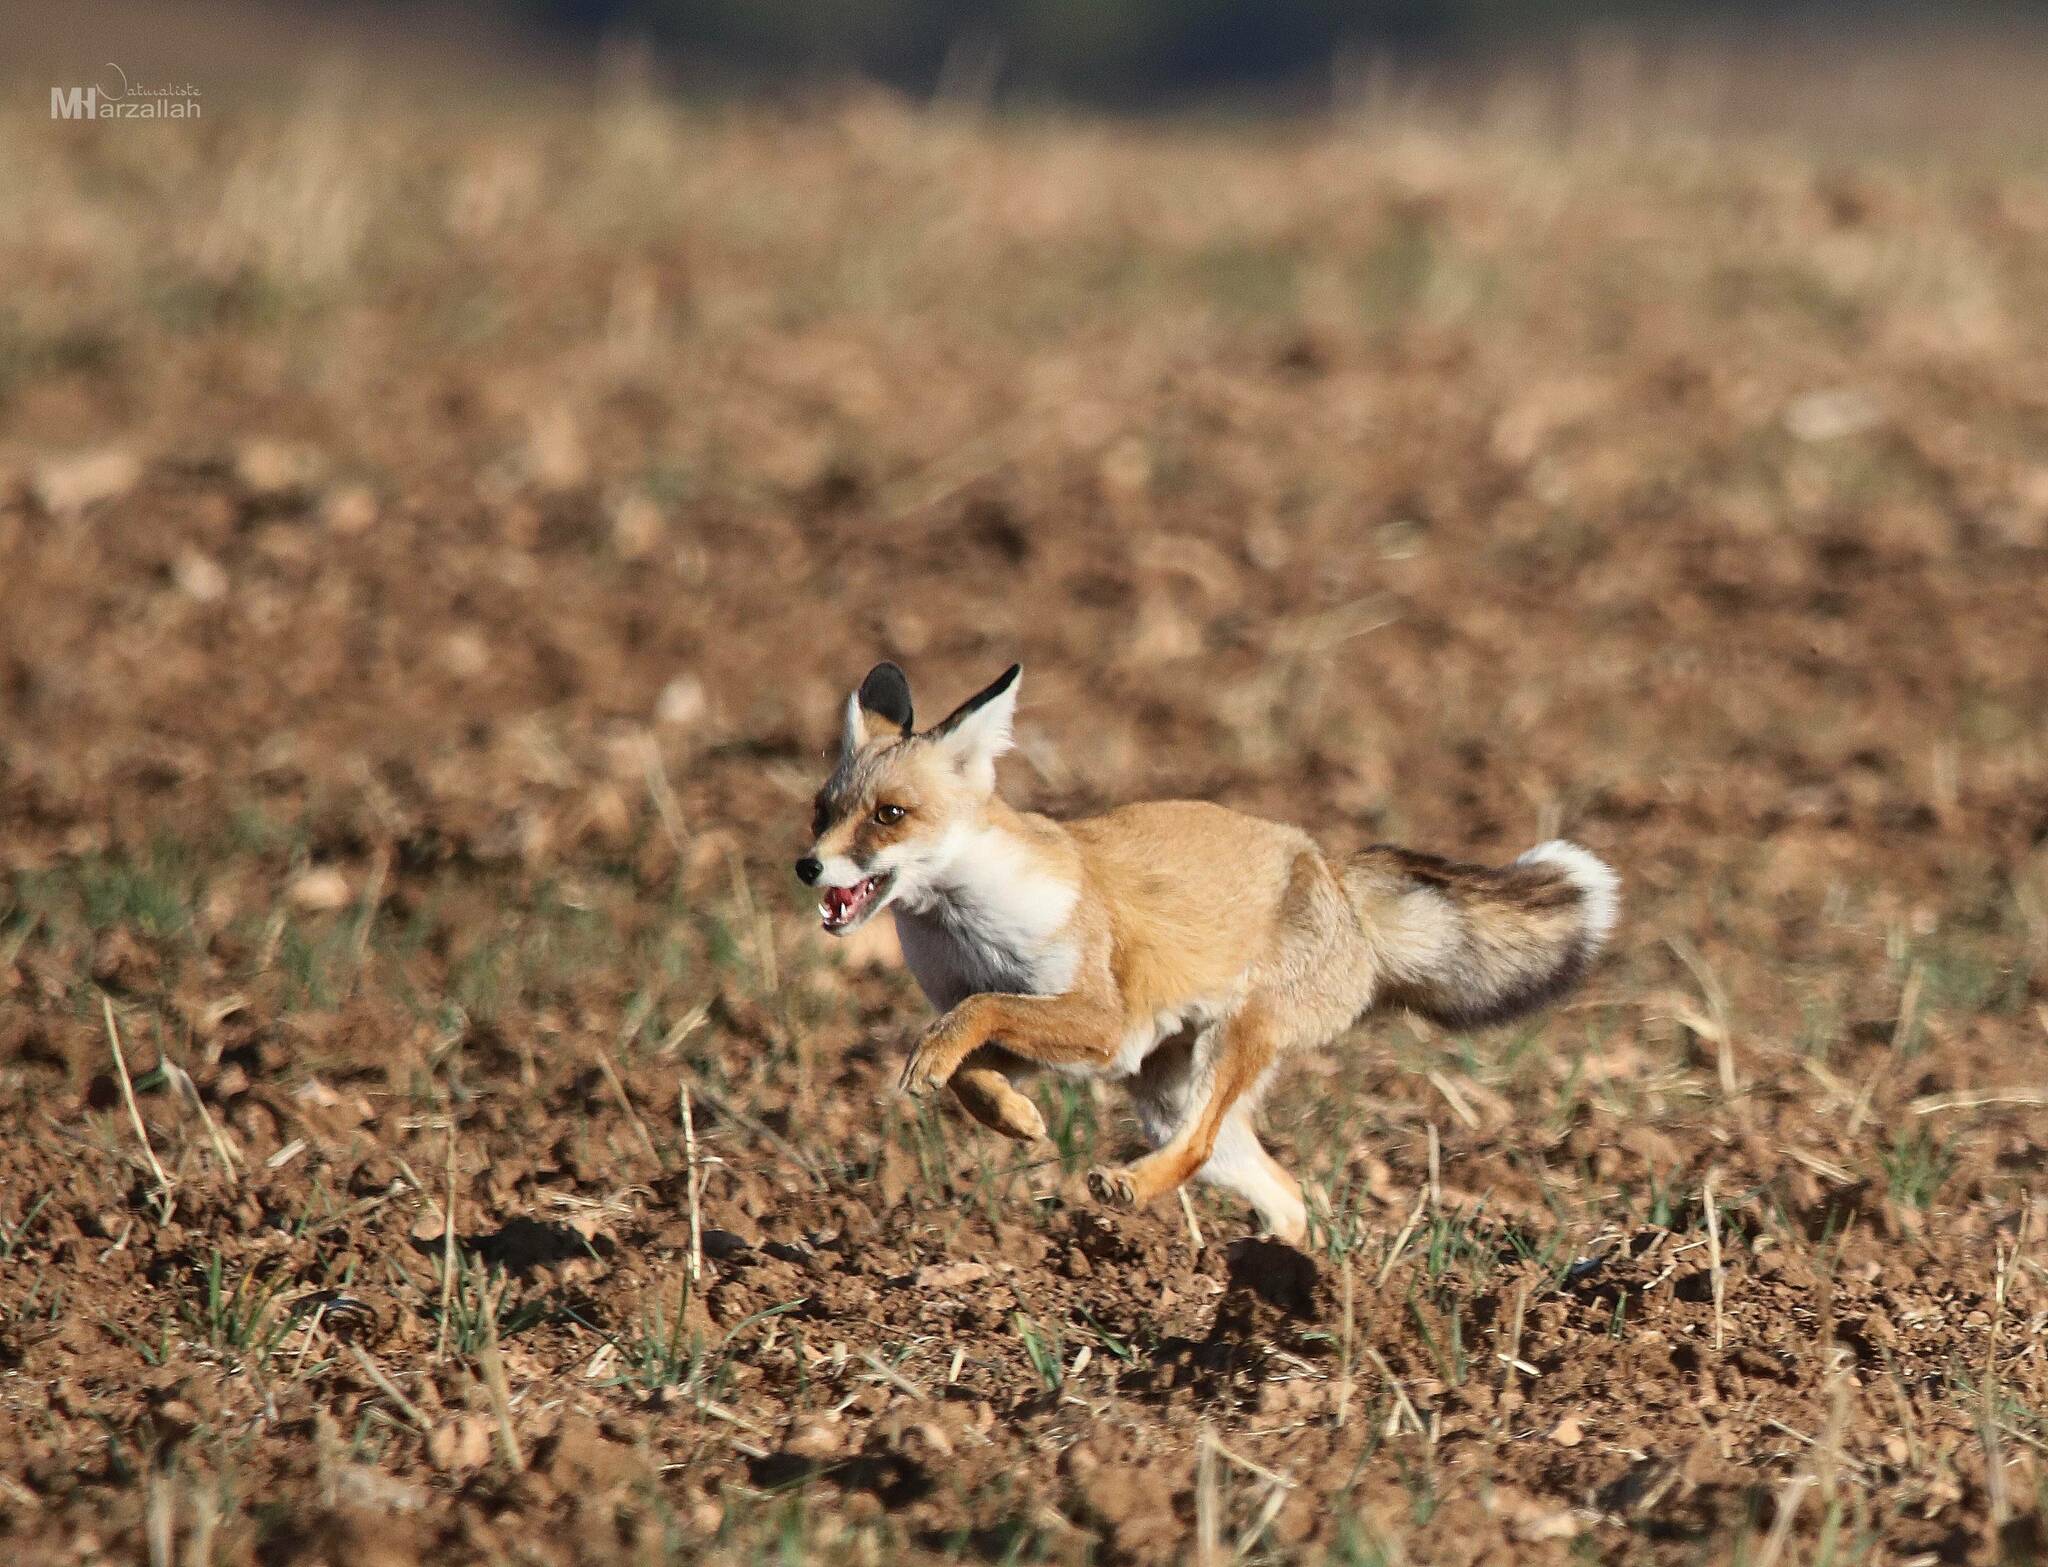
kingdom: Animalia
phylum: Chordata
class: Mammalia
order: Carnivora
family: Canidae
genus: Vulpes
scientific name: Vulpes vulpes
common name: Red fox
